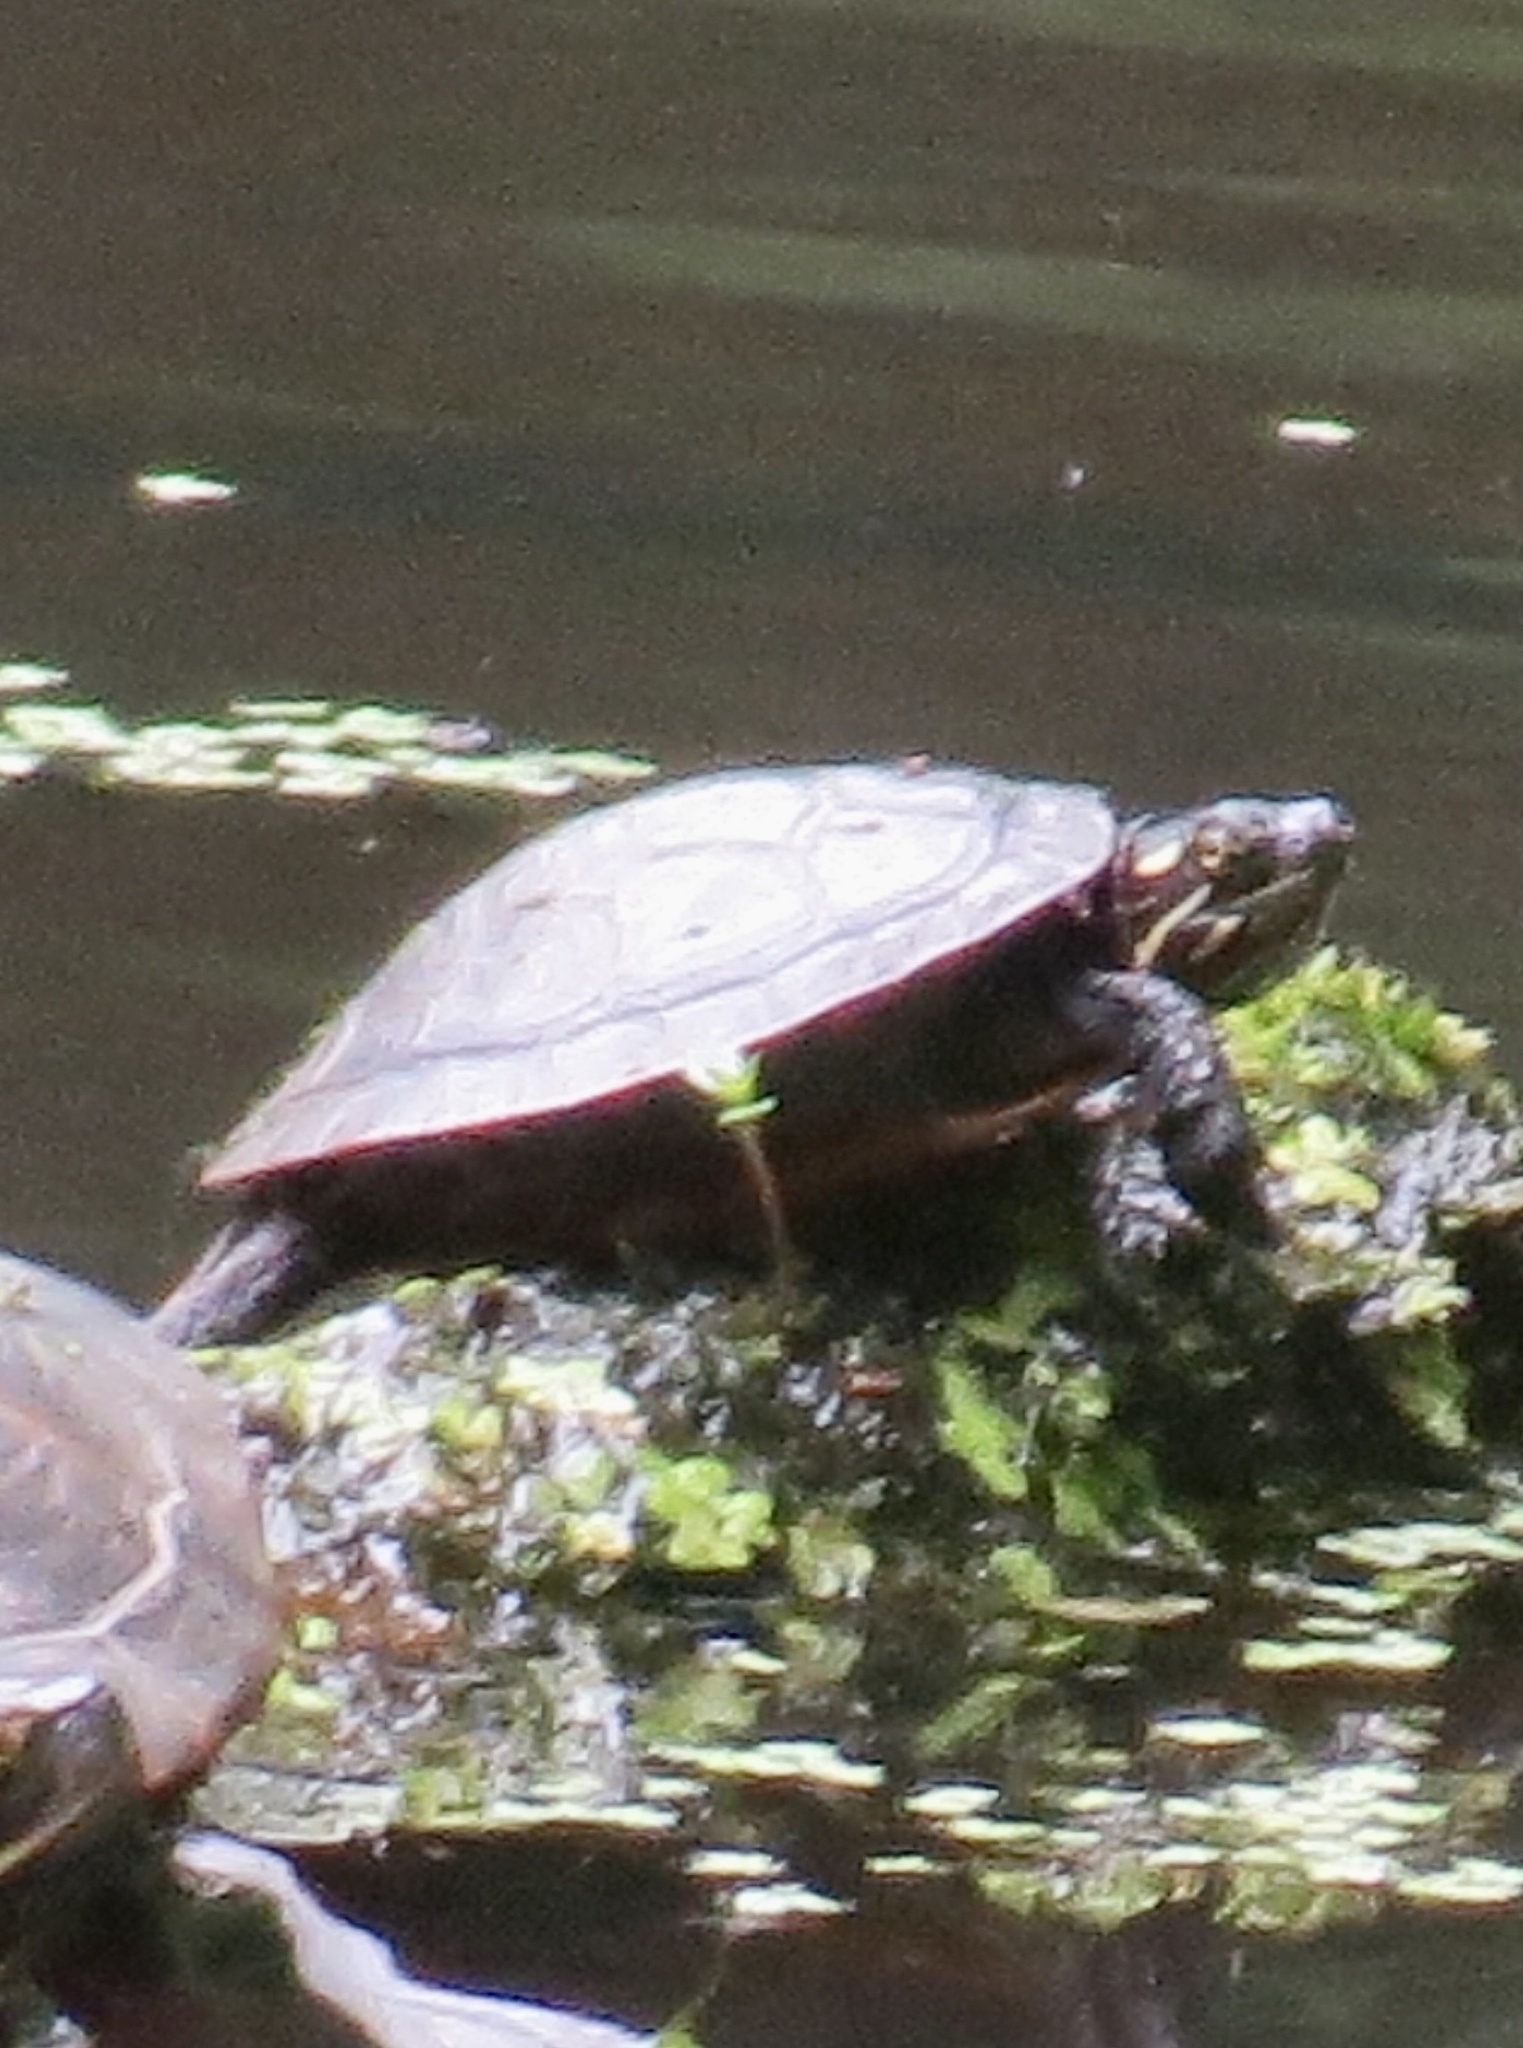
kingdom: Animalia
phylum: Chordata
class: Testudines
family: Emydidae
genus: Chrysemys
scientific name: Chrysemys picta
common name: Painted turtle
